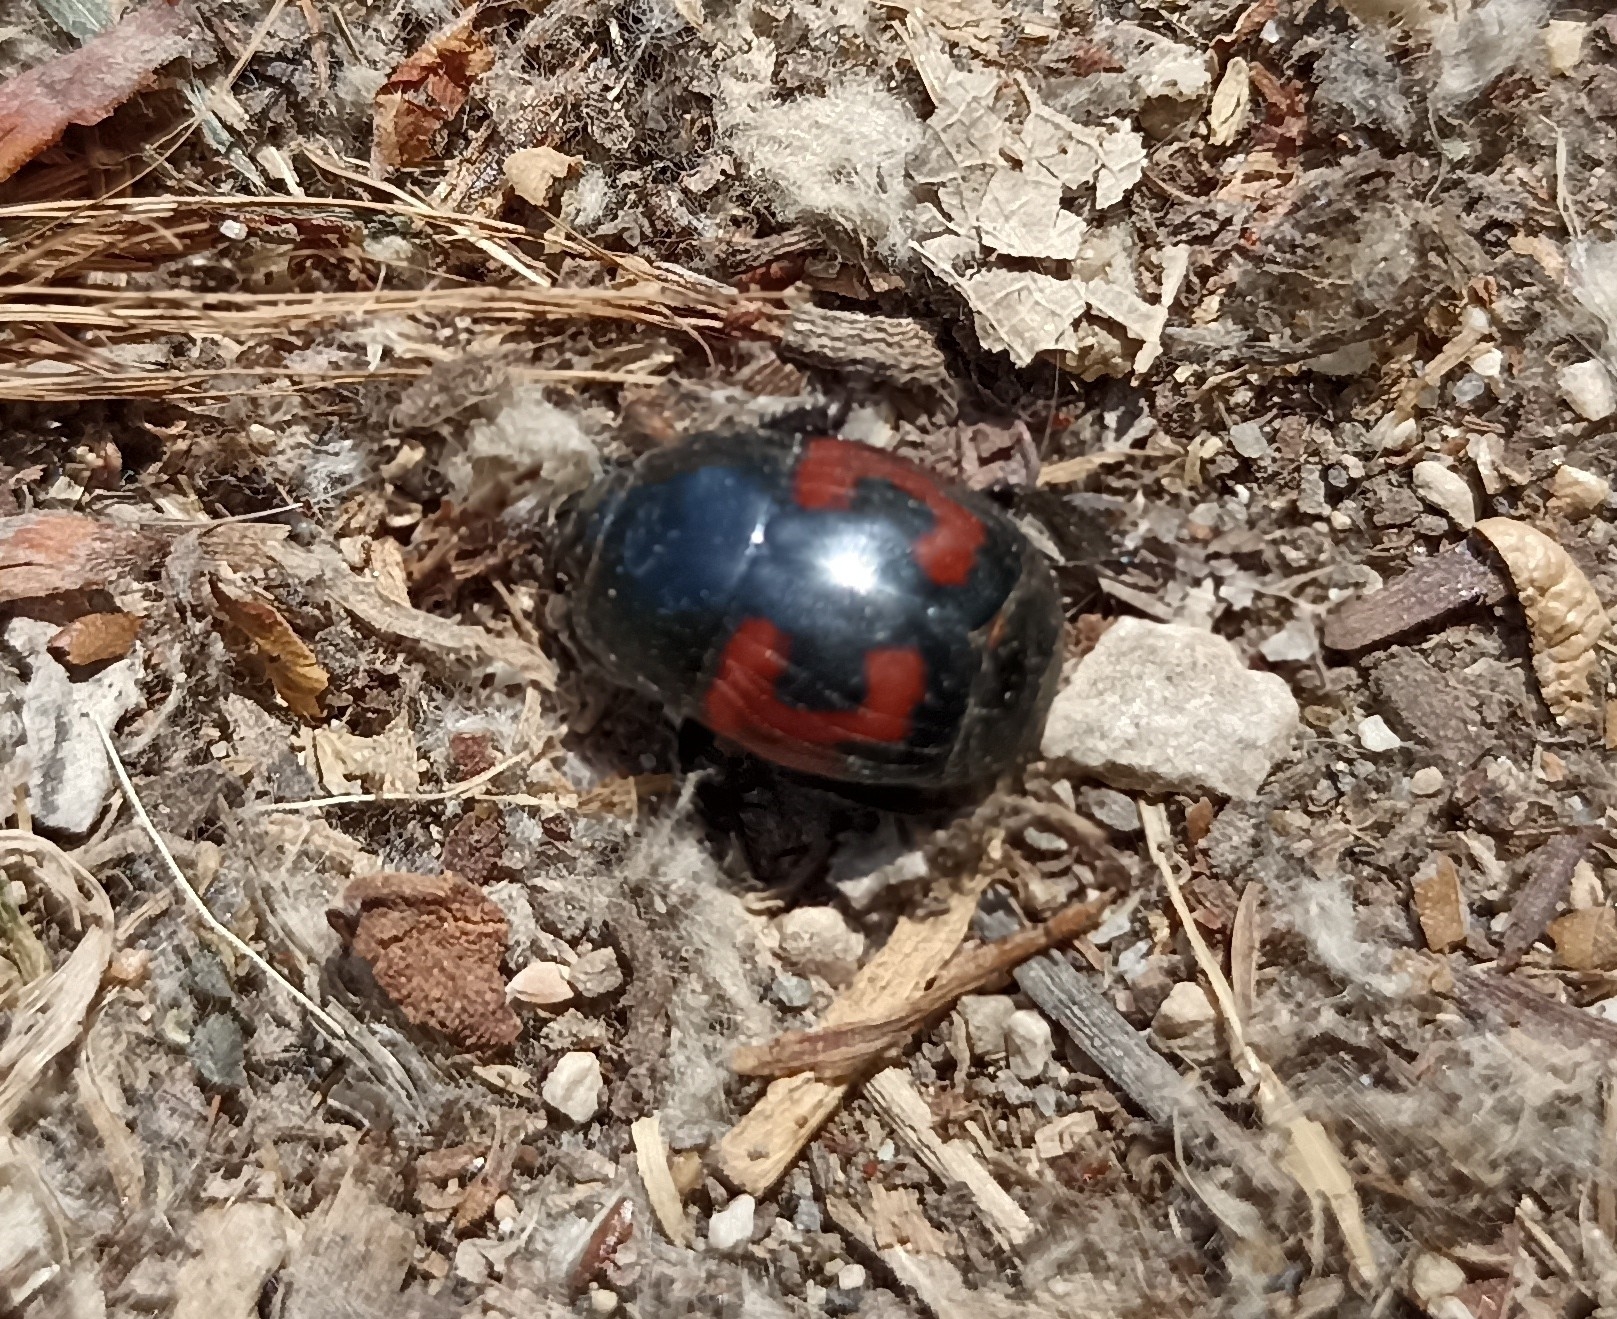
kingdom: Animalia
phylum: Arthropoda
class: Insecta
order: Coleoptera
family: Histeridae
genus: Hister
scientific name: Hister quadrimaculatus
